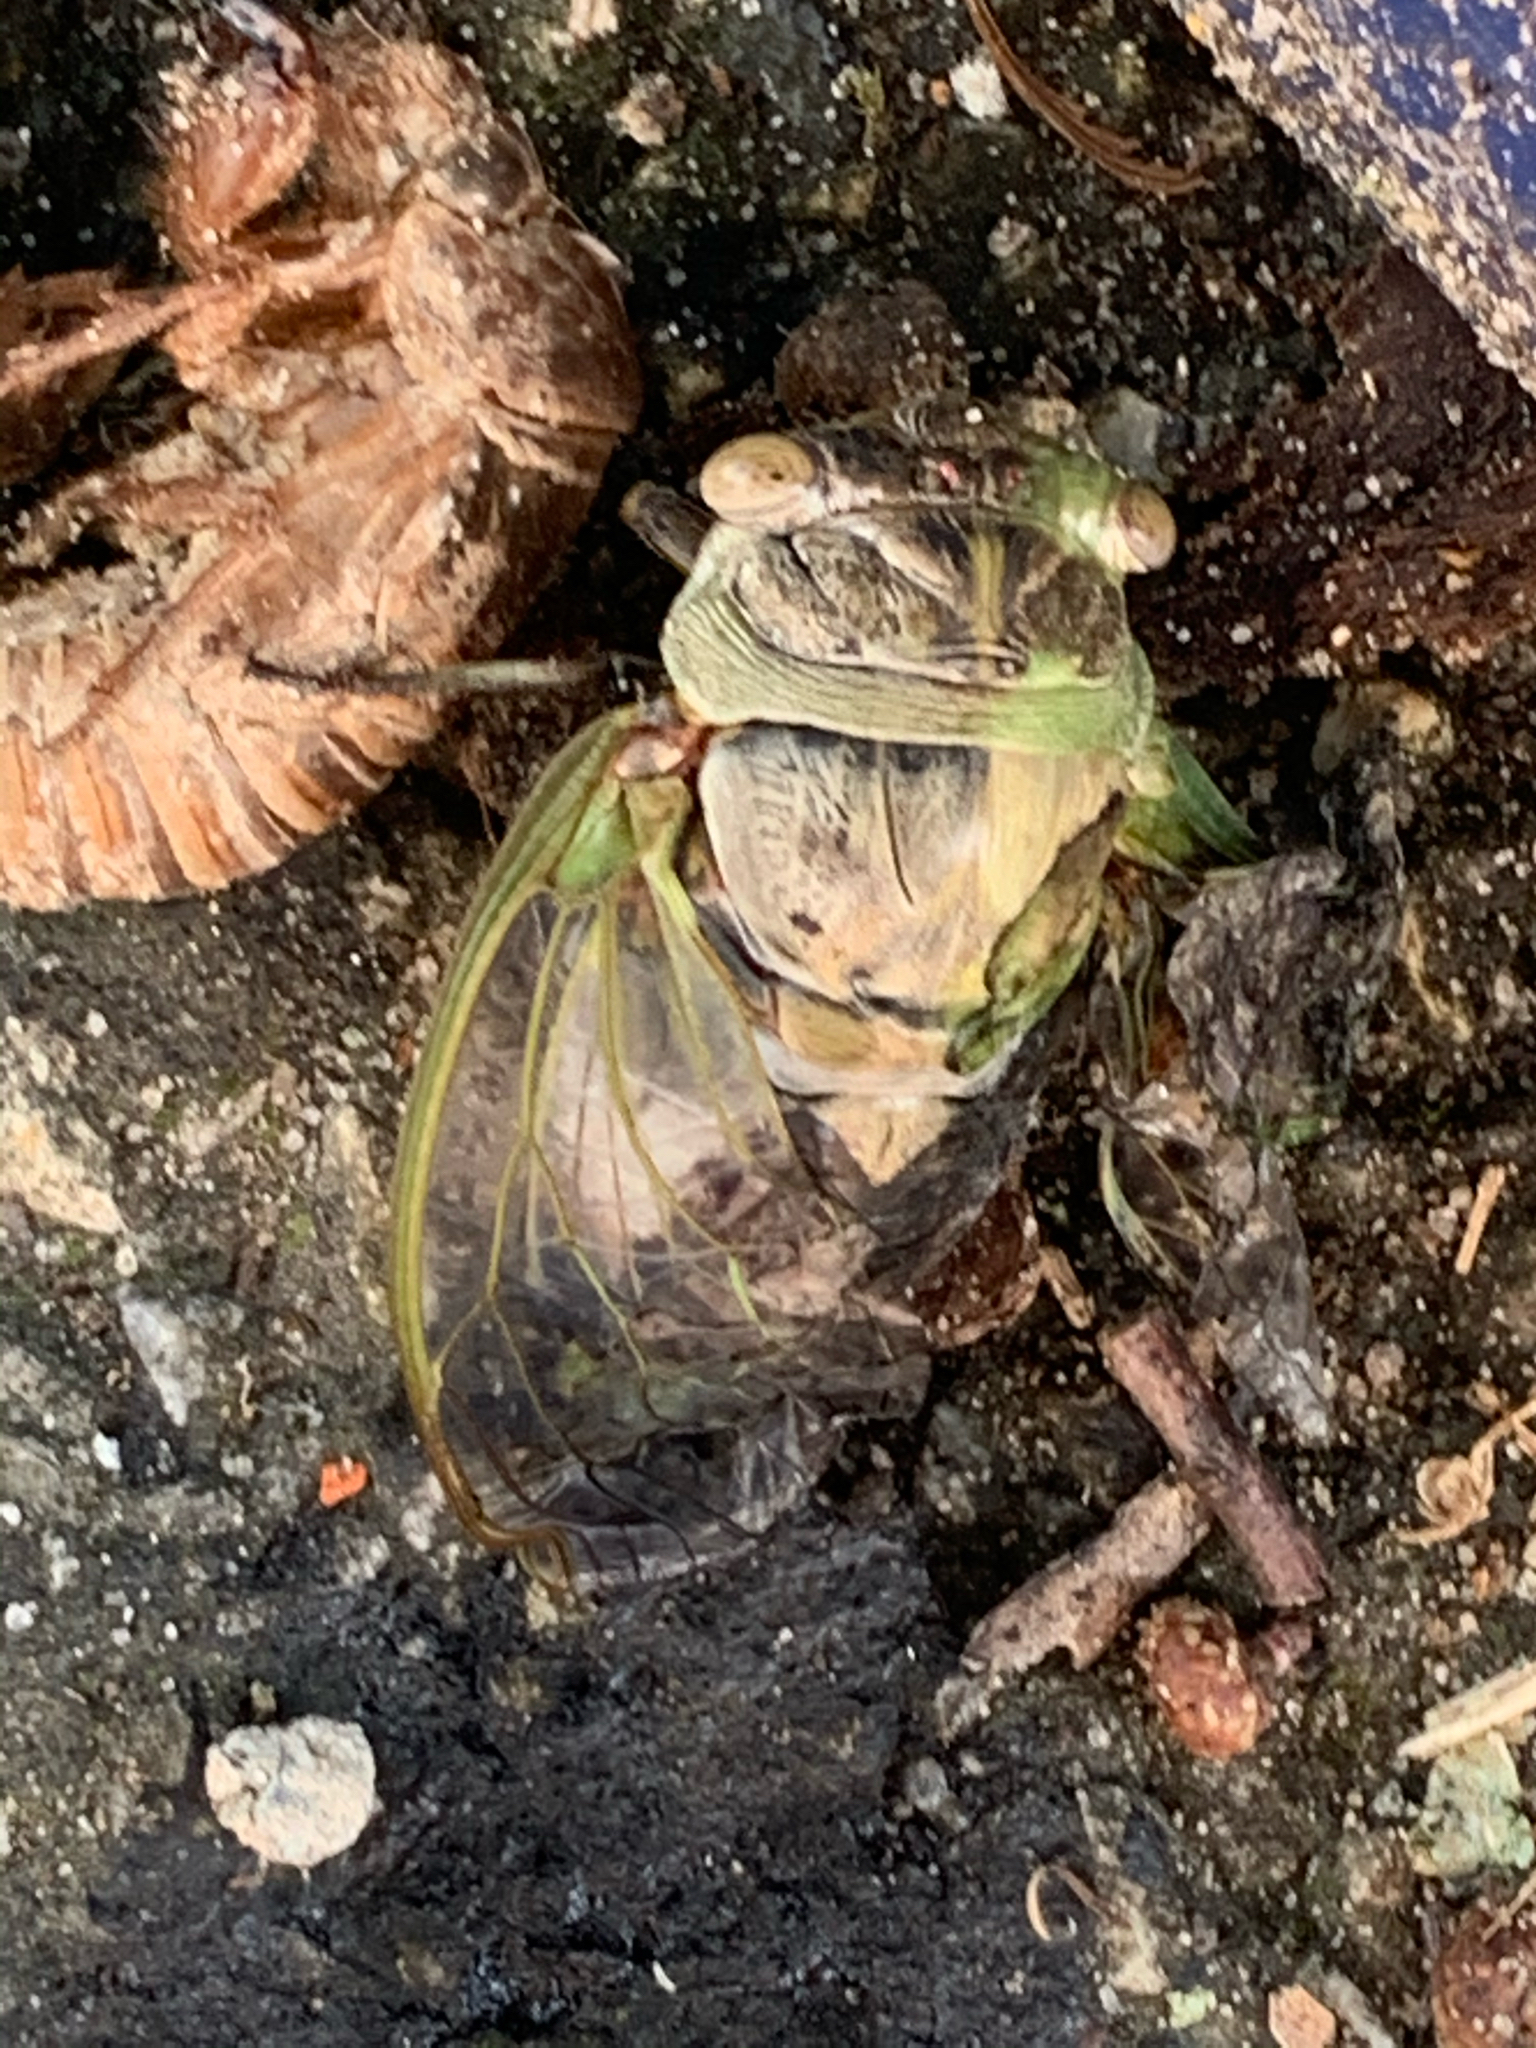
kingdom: Animalia
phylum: Arthropoda
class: Insecta
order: Hemiptera
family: Cicadidae
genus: Diceroprocta
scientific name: Diceroprocta grossa
